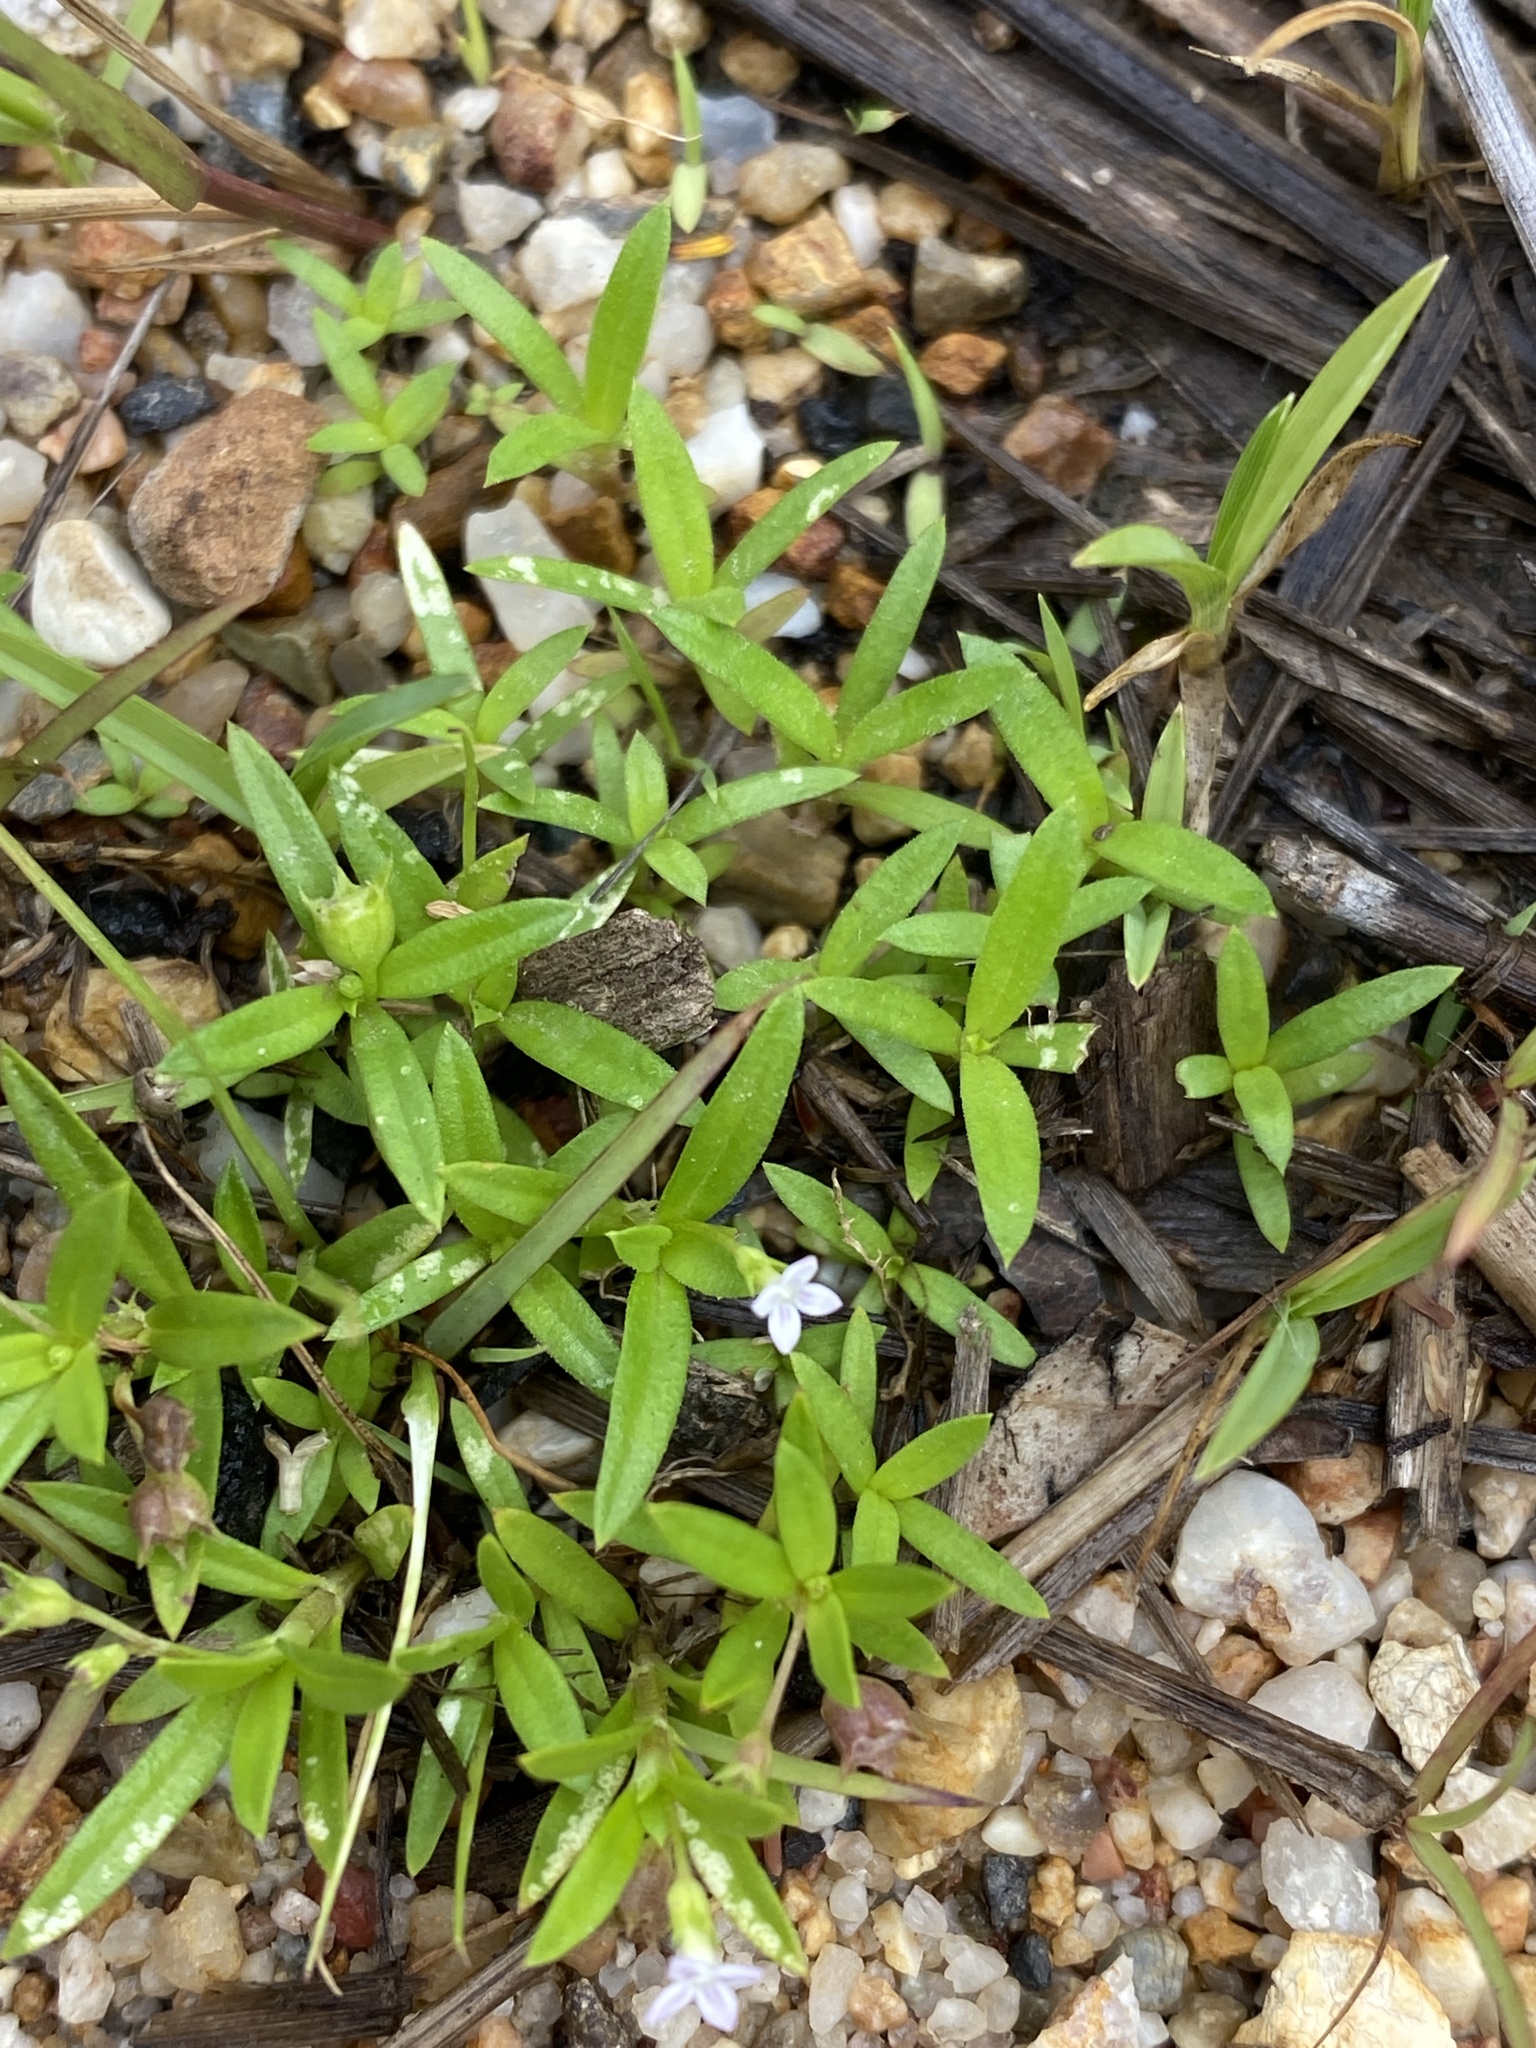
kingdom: Plantae
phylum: Tracheophyta
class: Magnoliopsida
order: Gentianales
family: Rubiaceae
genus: Oldenlandia
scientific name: Oldenlandia corymbosa
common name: Flat-top mille graines
